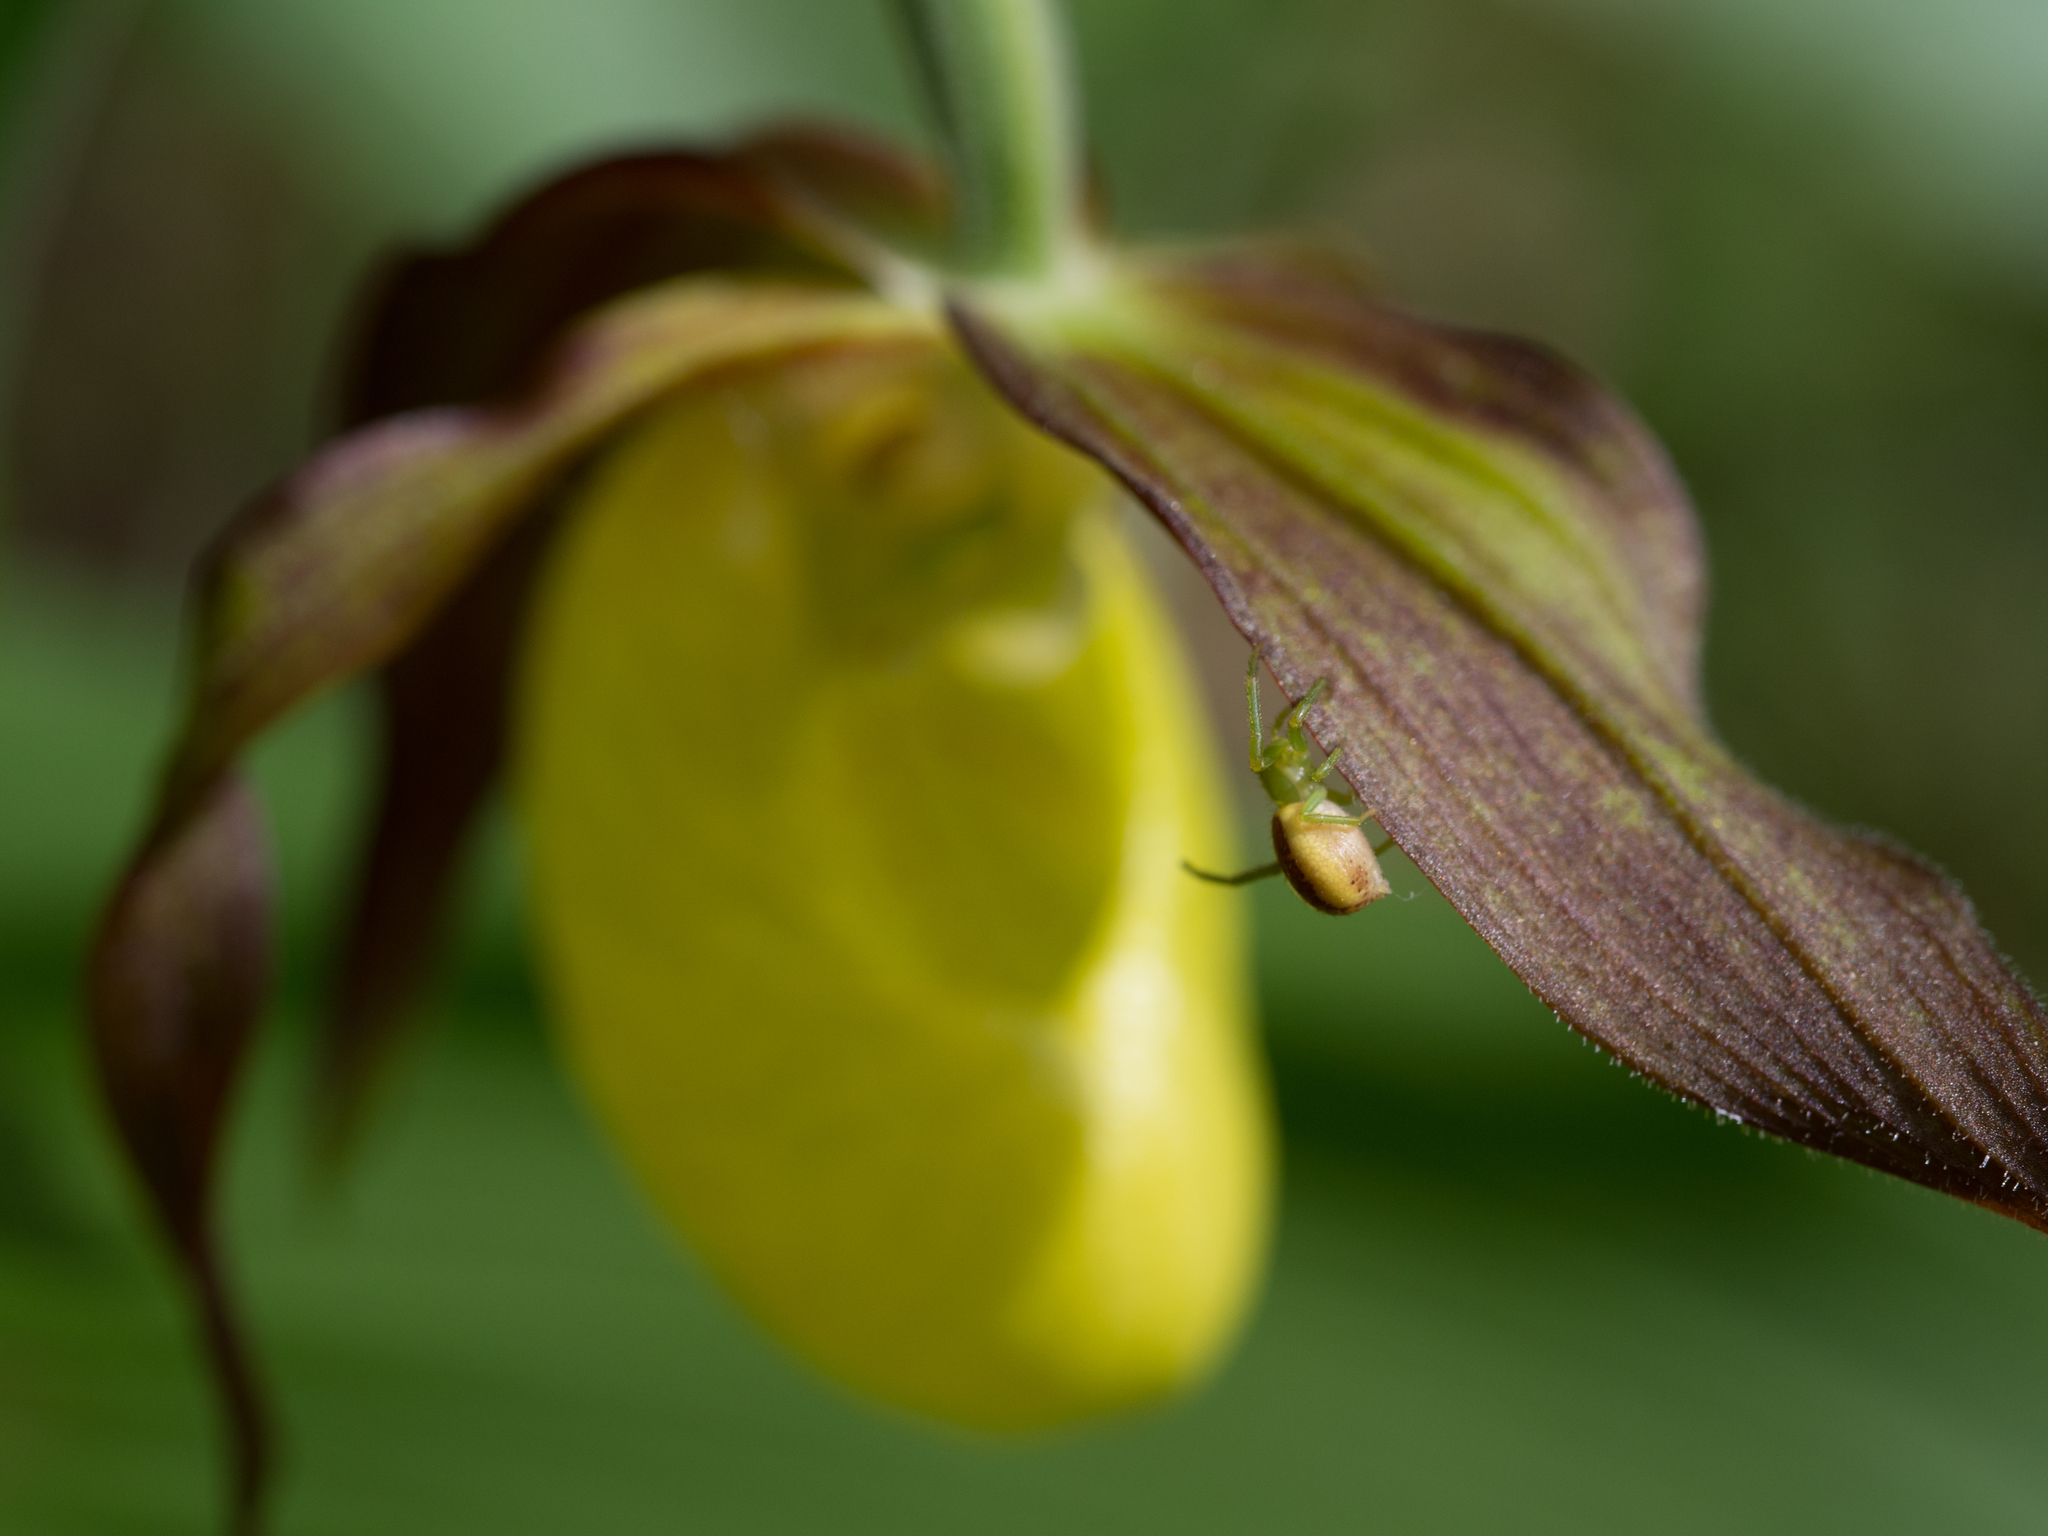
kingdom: Animalia
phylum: Arthropoda
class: Arachnida
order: Araneae
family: Thomisidae
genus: Diaea
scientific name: Diaea dorsata
